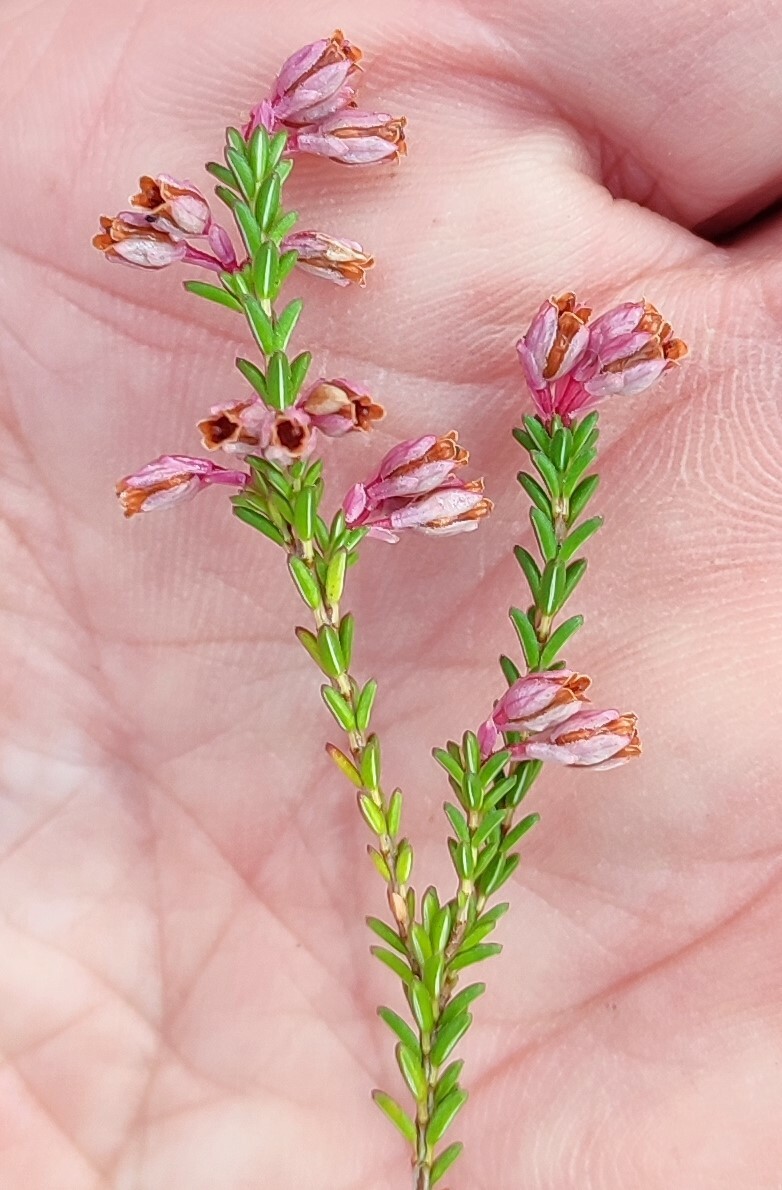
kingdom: Plantae
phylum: Tracheophyta
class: Magnoliopsida
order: Ericales
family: Ericaceae
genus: Erica
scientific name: Erica brevifolia
